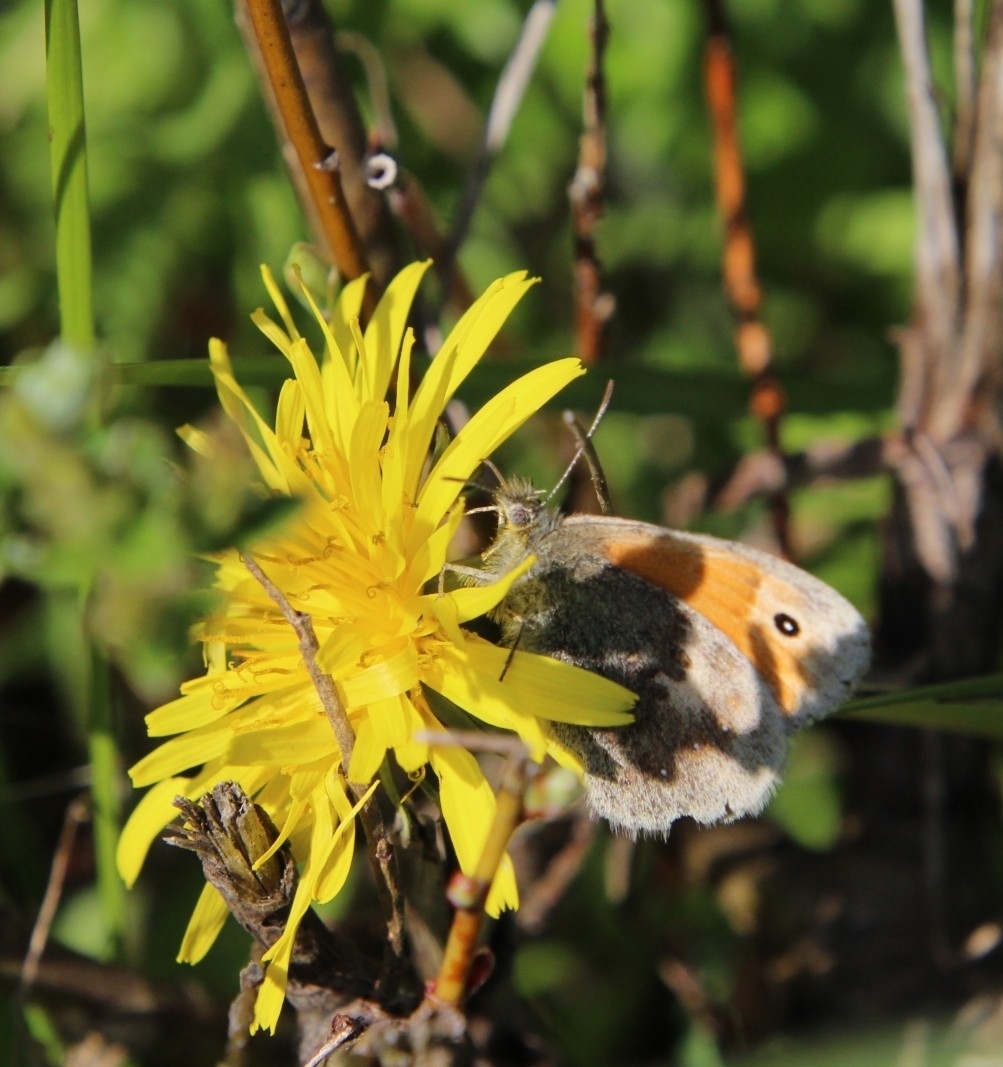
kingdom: Animalia
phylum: Arthropoda
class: Insecta
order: Lepidoptera
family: Nymphalidae
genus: Coenonympha
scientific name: Coenonympha pamphilus
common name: Small heath
